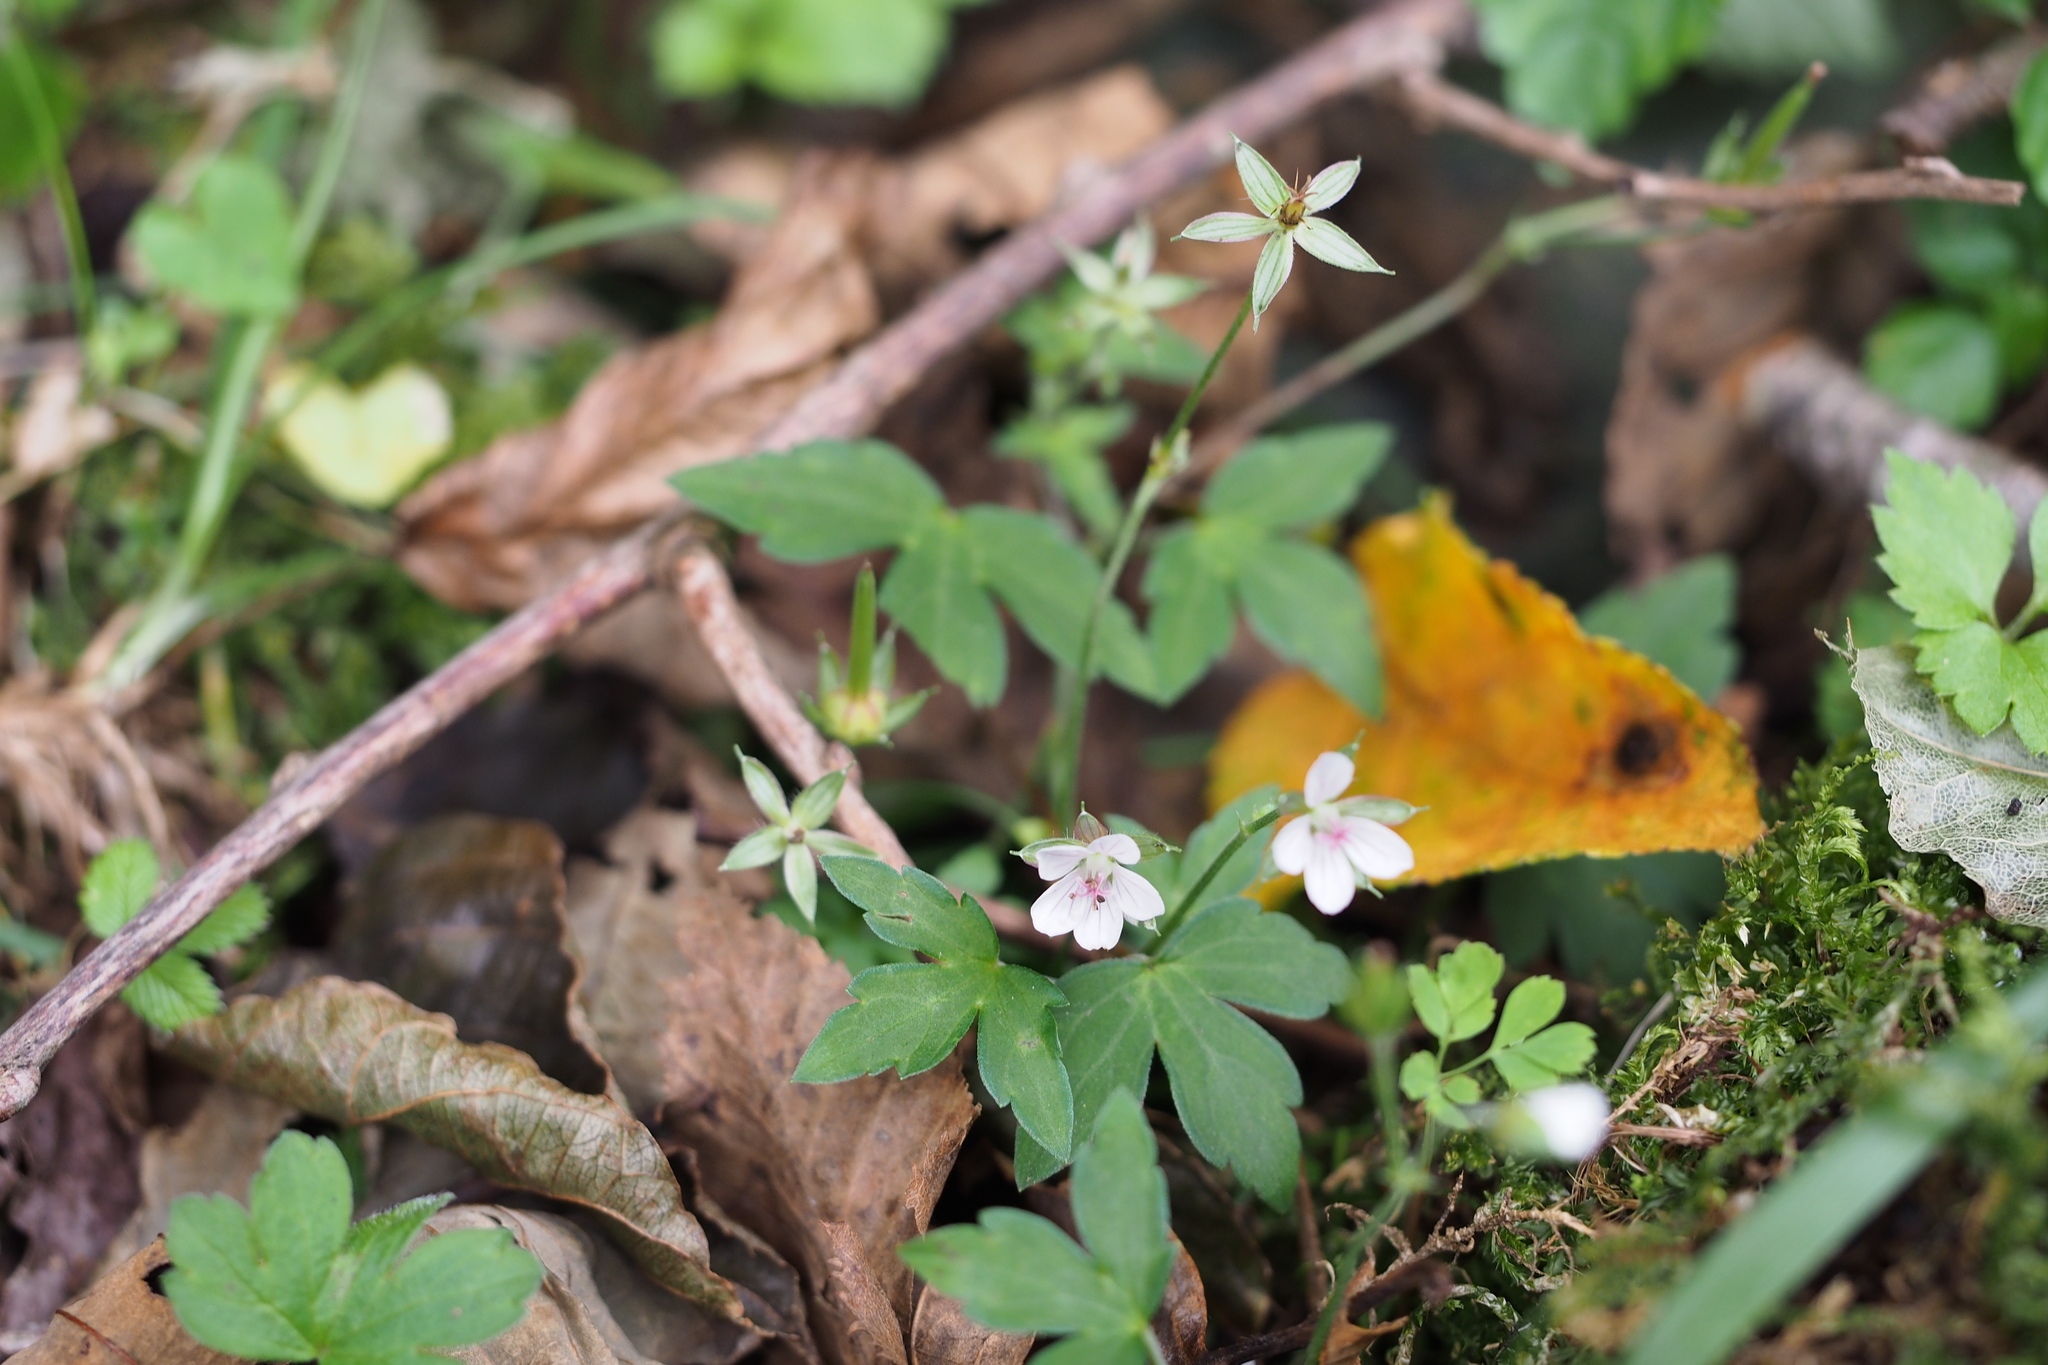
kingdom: Plantae
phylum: Tracheophyta
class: Magnoliopsida
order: Geraniales
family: Geraniaceae
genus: Geranium
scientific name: Geranium thunbergii
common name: Dewdrop crane's-bill
